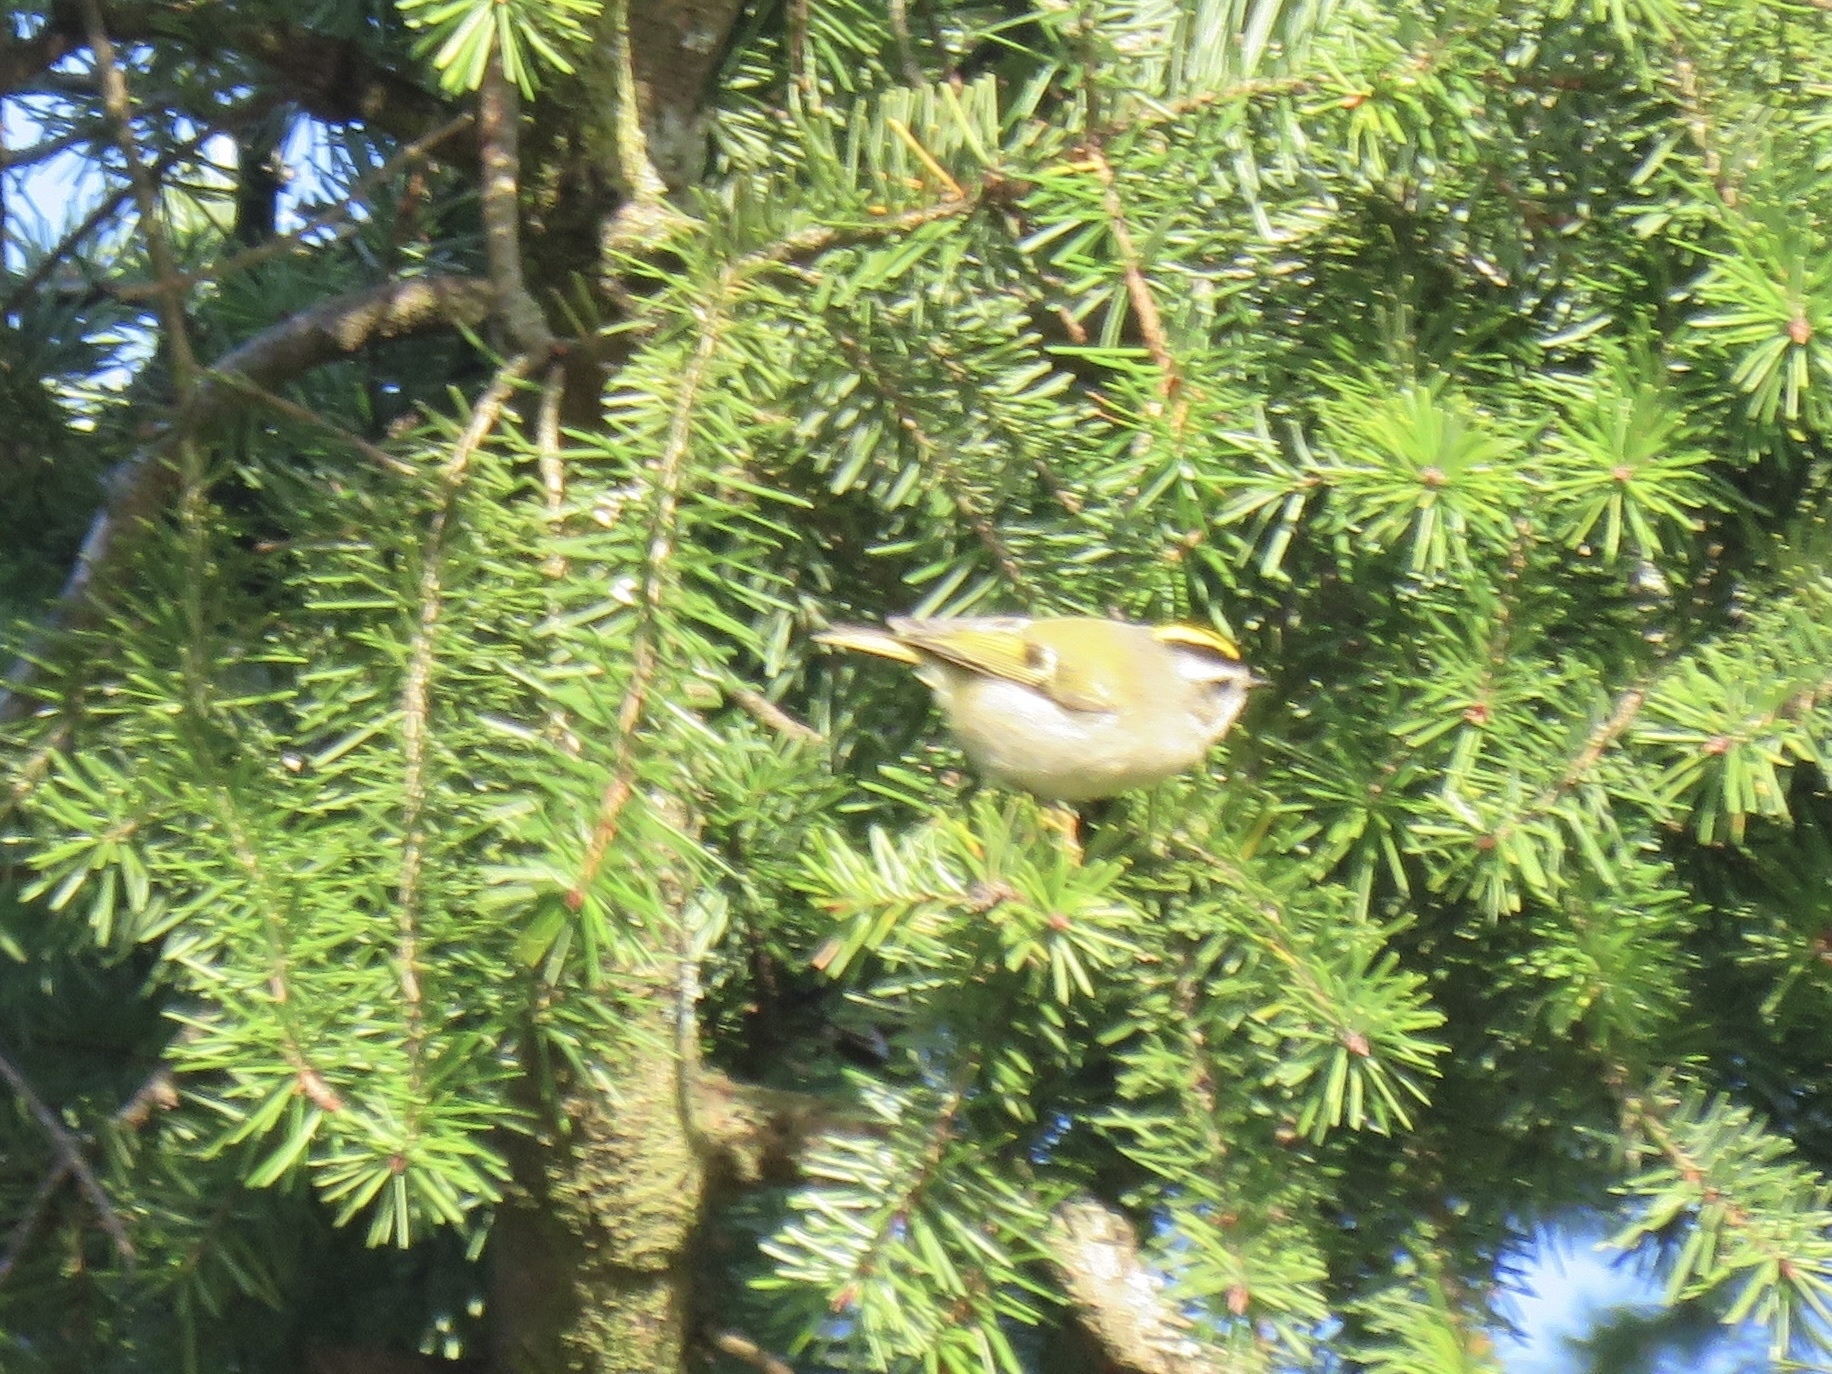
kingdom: Animalia
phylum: Chordata
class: Aves
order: Passeriformes
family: Regulidae
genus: Regulus
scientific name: Regulus satrapa
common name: Golden-crowned kinglet
